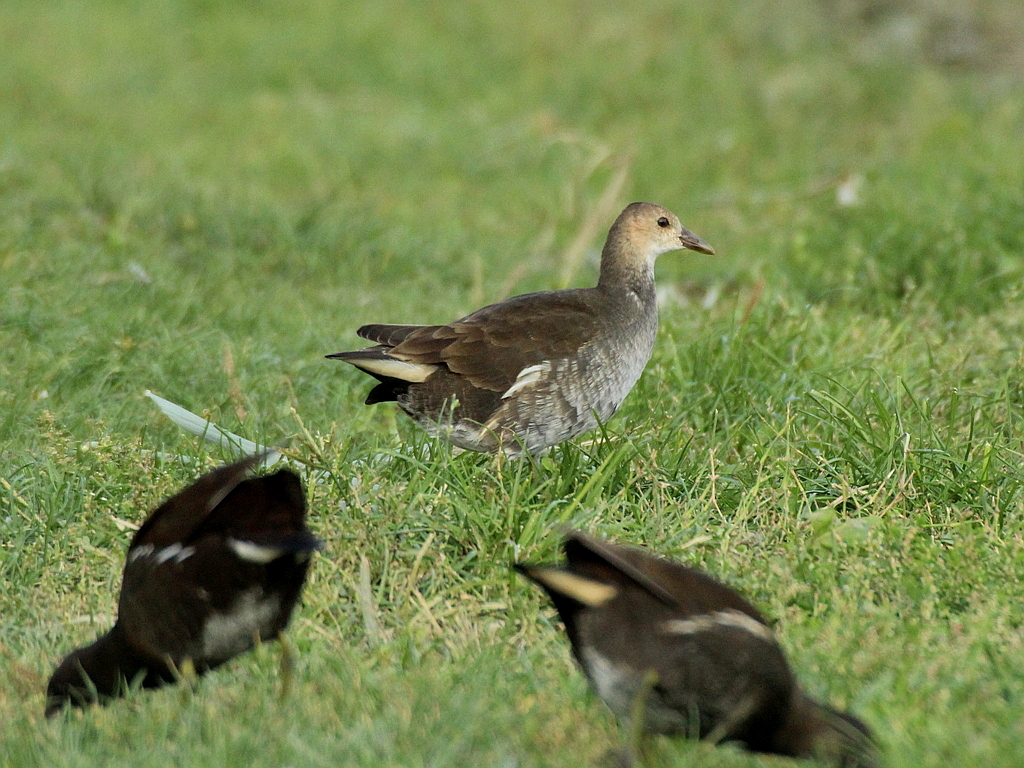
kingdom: Animalia
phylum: Chordata
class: Aves
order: Gruiformes
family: Rallidae
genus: Gallinula
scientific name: Gallinula chloropus
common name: Common moorhen
